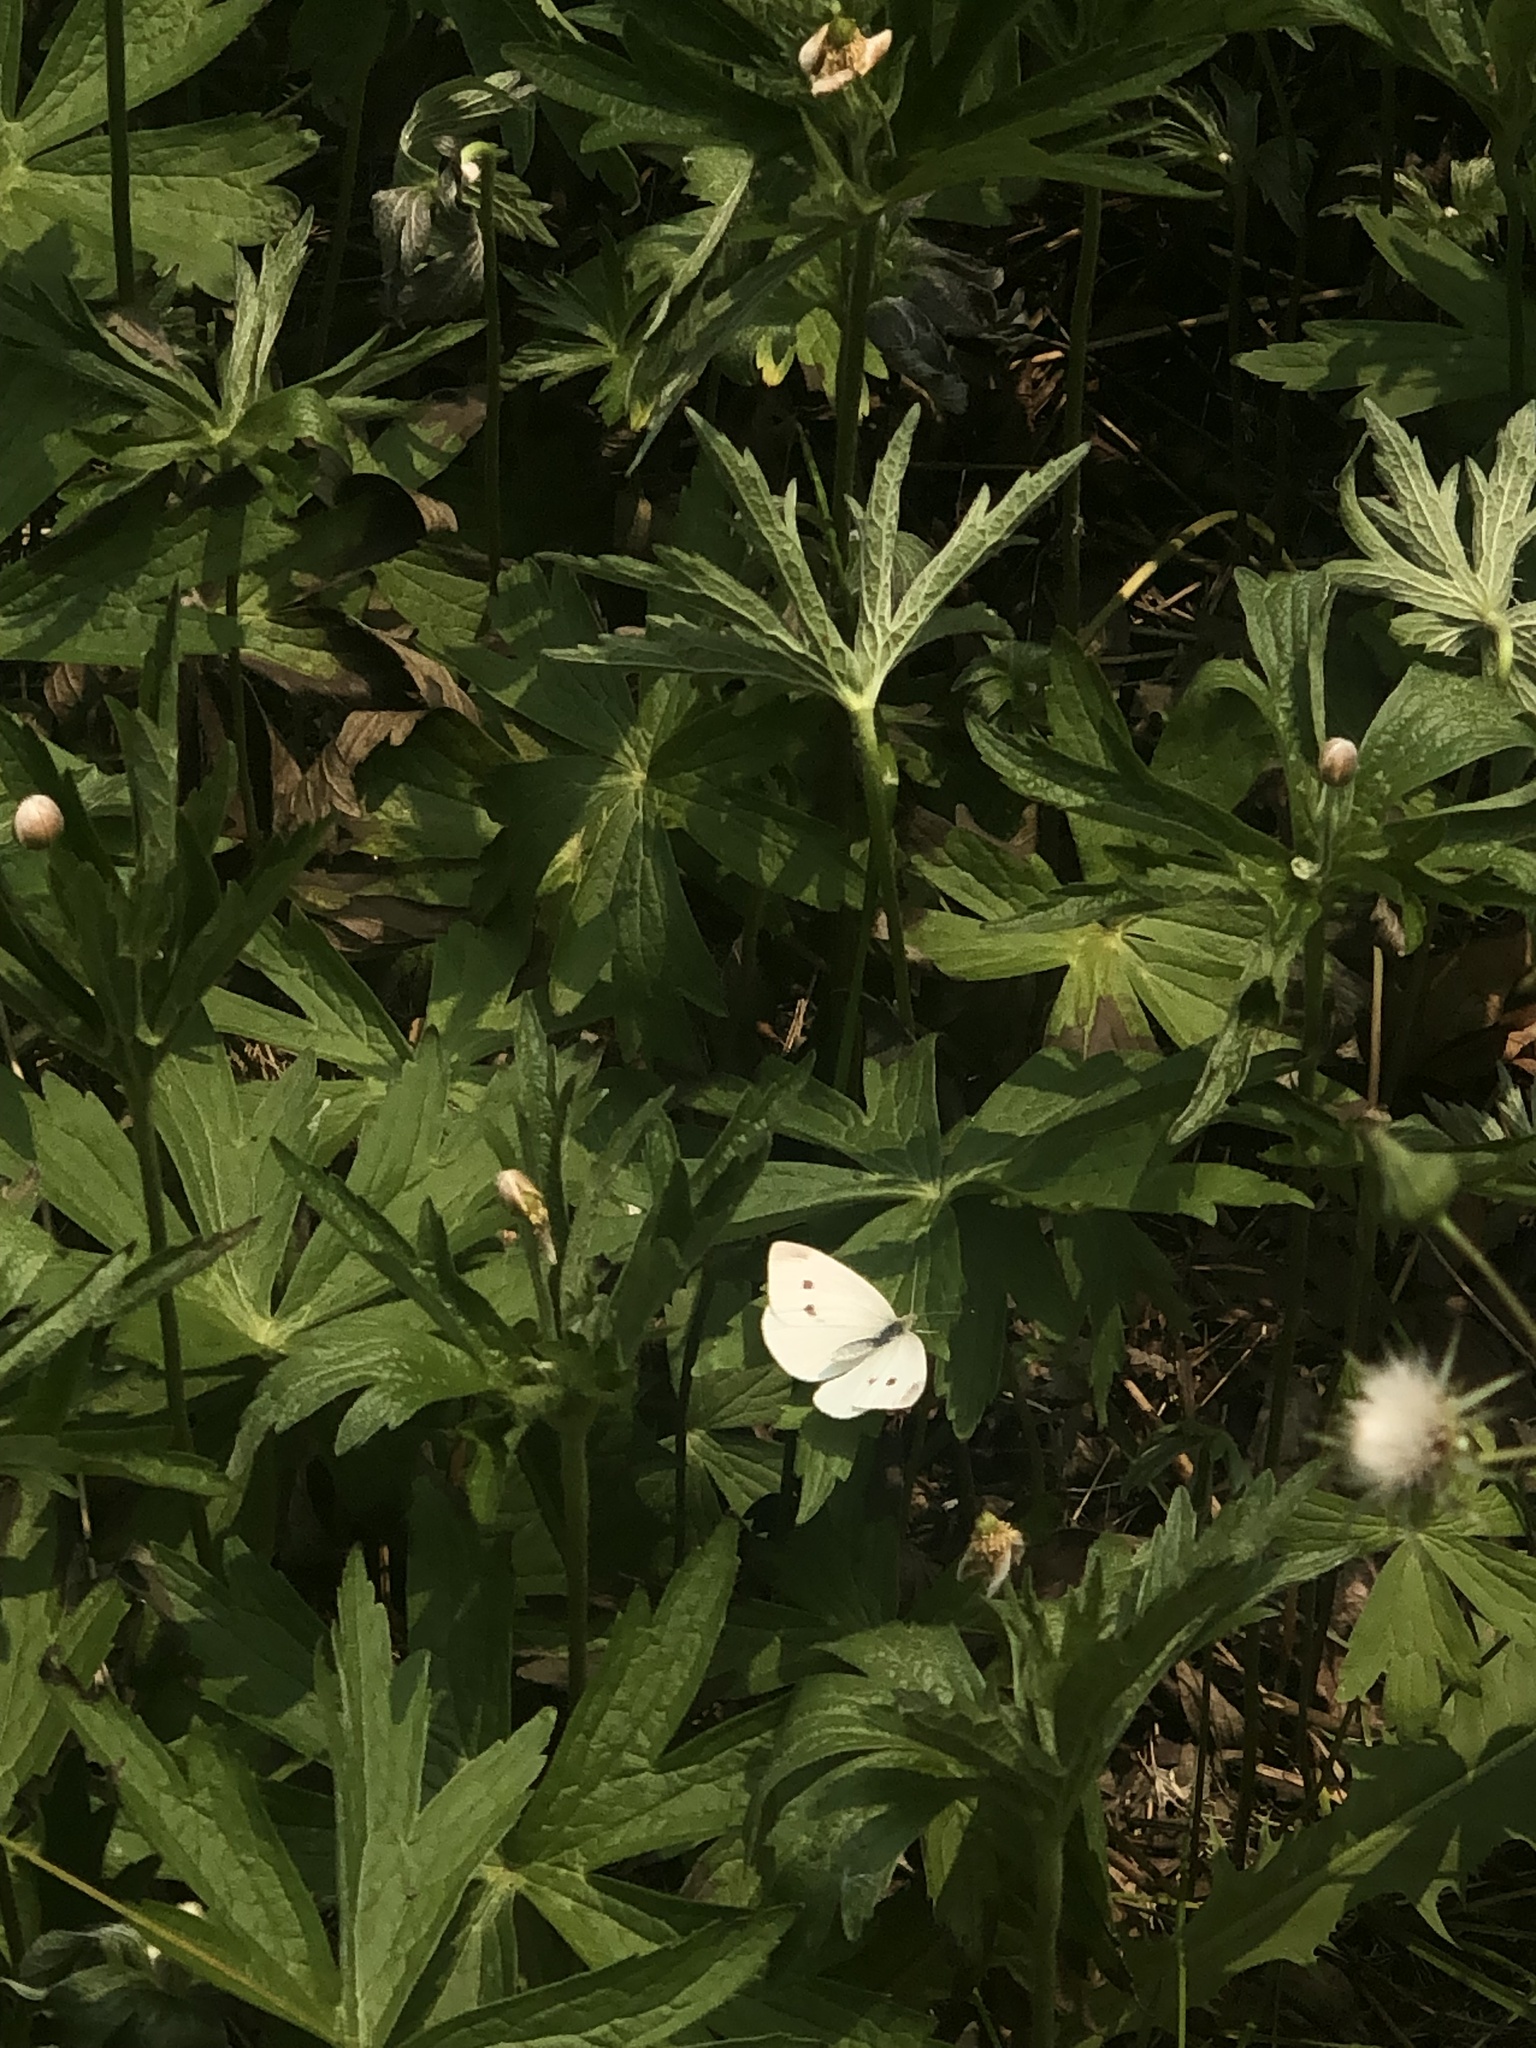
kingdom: Animalia
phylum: Arthropoda
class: Insecta
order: Lepidoptera
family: Pieridae
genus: Pieris
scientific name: Pieris rapae
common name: Small white
